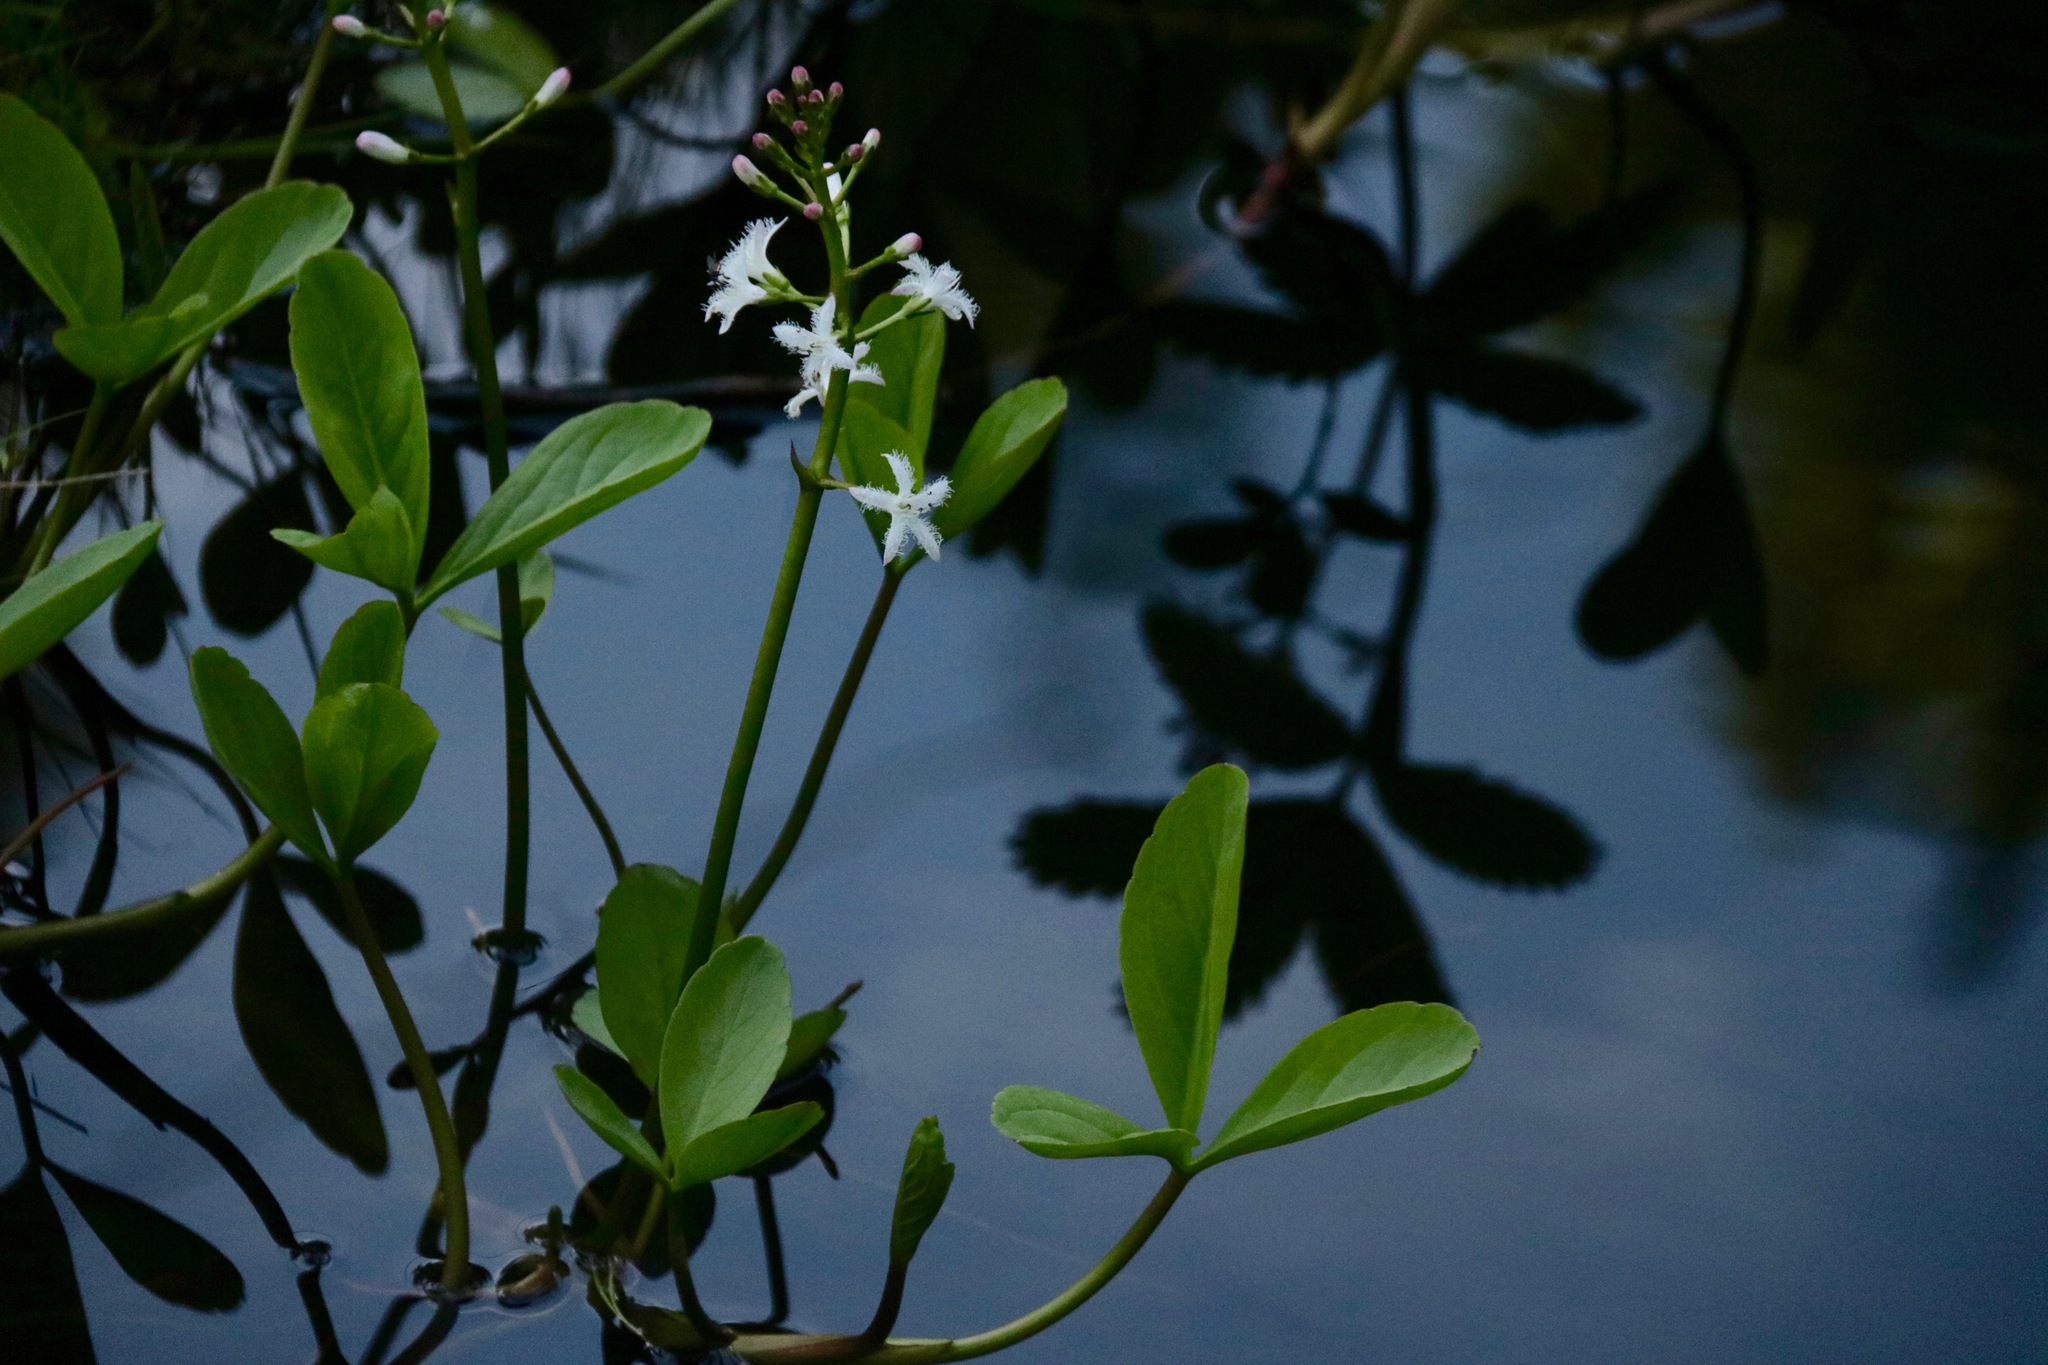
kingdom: Plantae
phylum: Tracheophyta
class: Magnoliopsida
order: Asterales
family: Menyanthaceae
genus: Menyanthes
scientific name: Menyanthes trifoliata
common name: Bogbean
